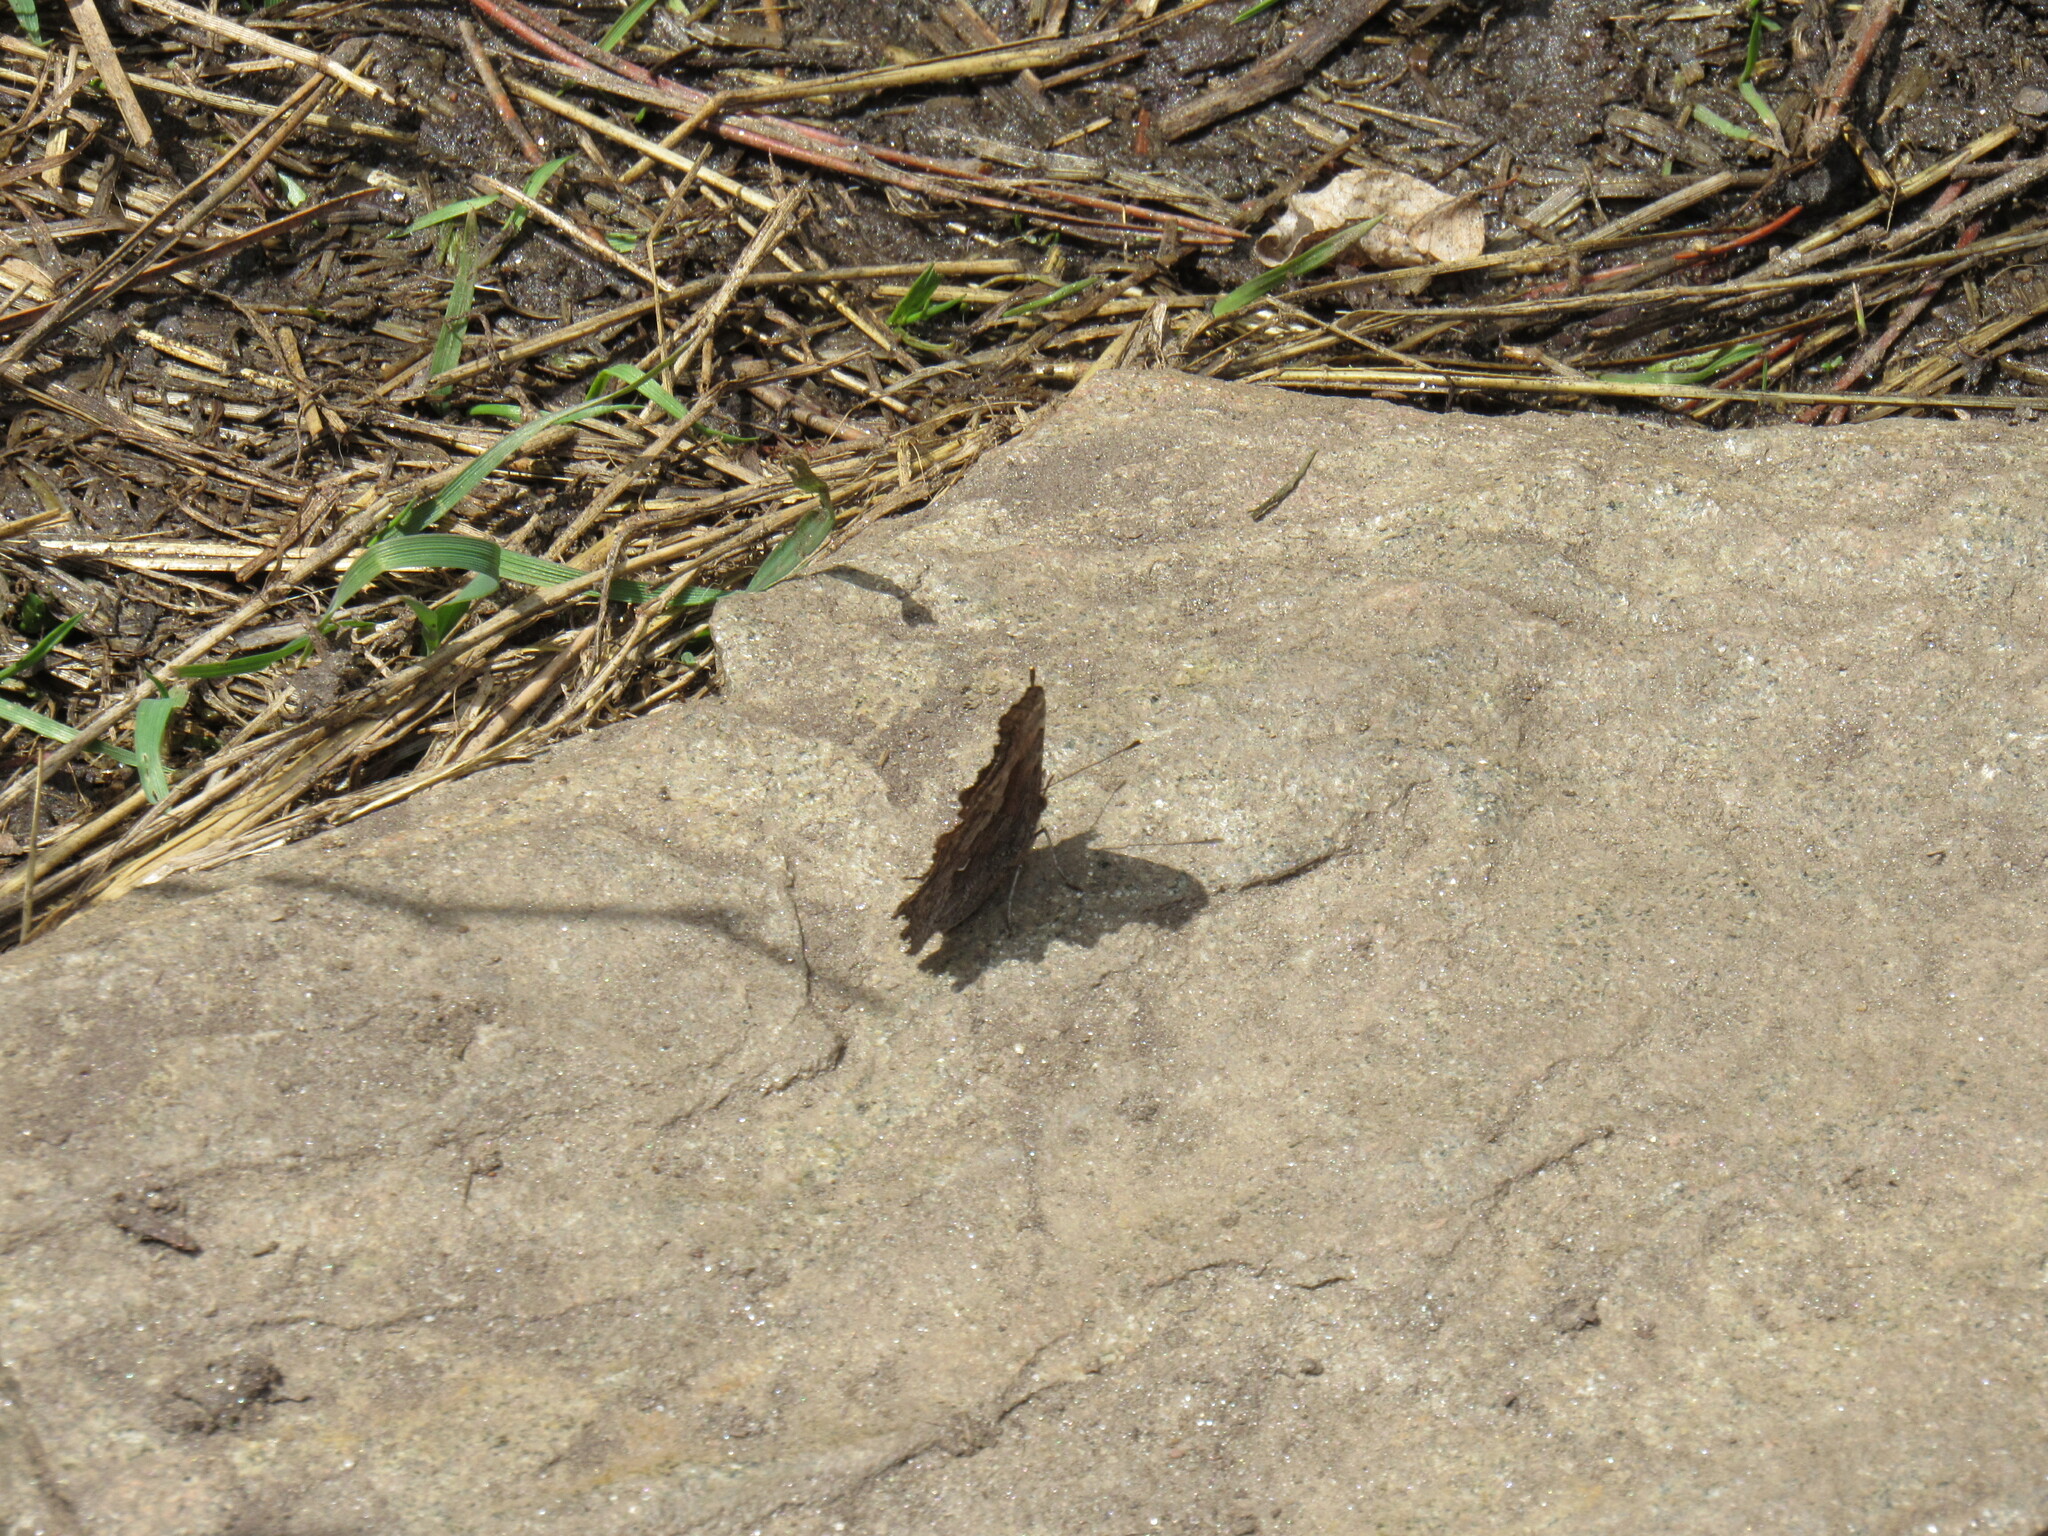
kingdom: Animalia
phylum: Arthropoda
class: Insecta
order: Lepidoptera
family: Nymphalidae
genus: Polygonia
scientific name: Polygonia gracilis
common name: Hoary comma
